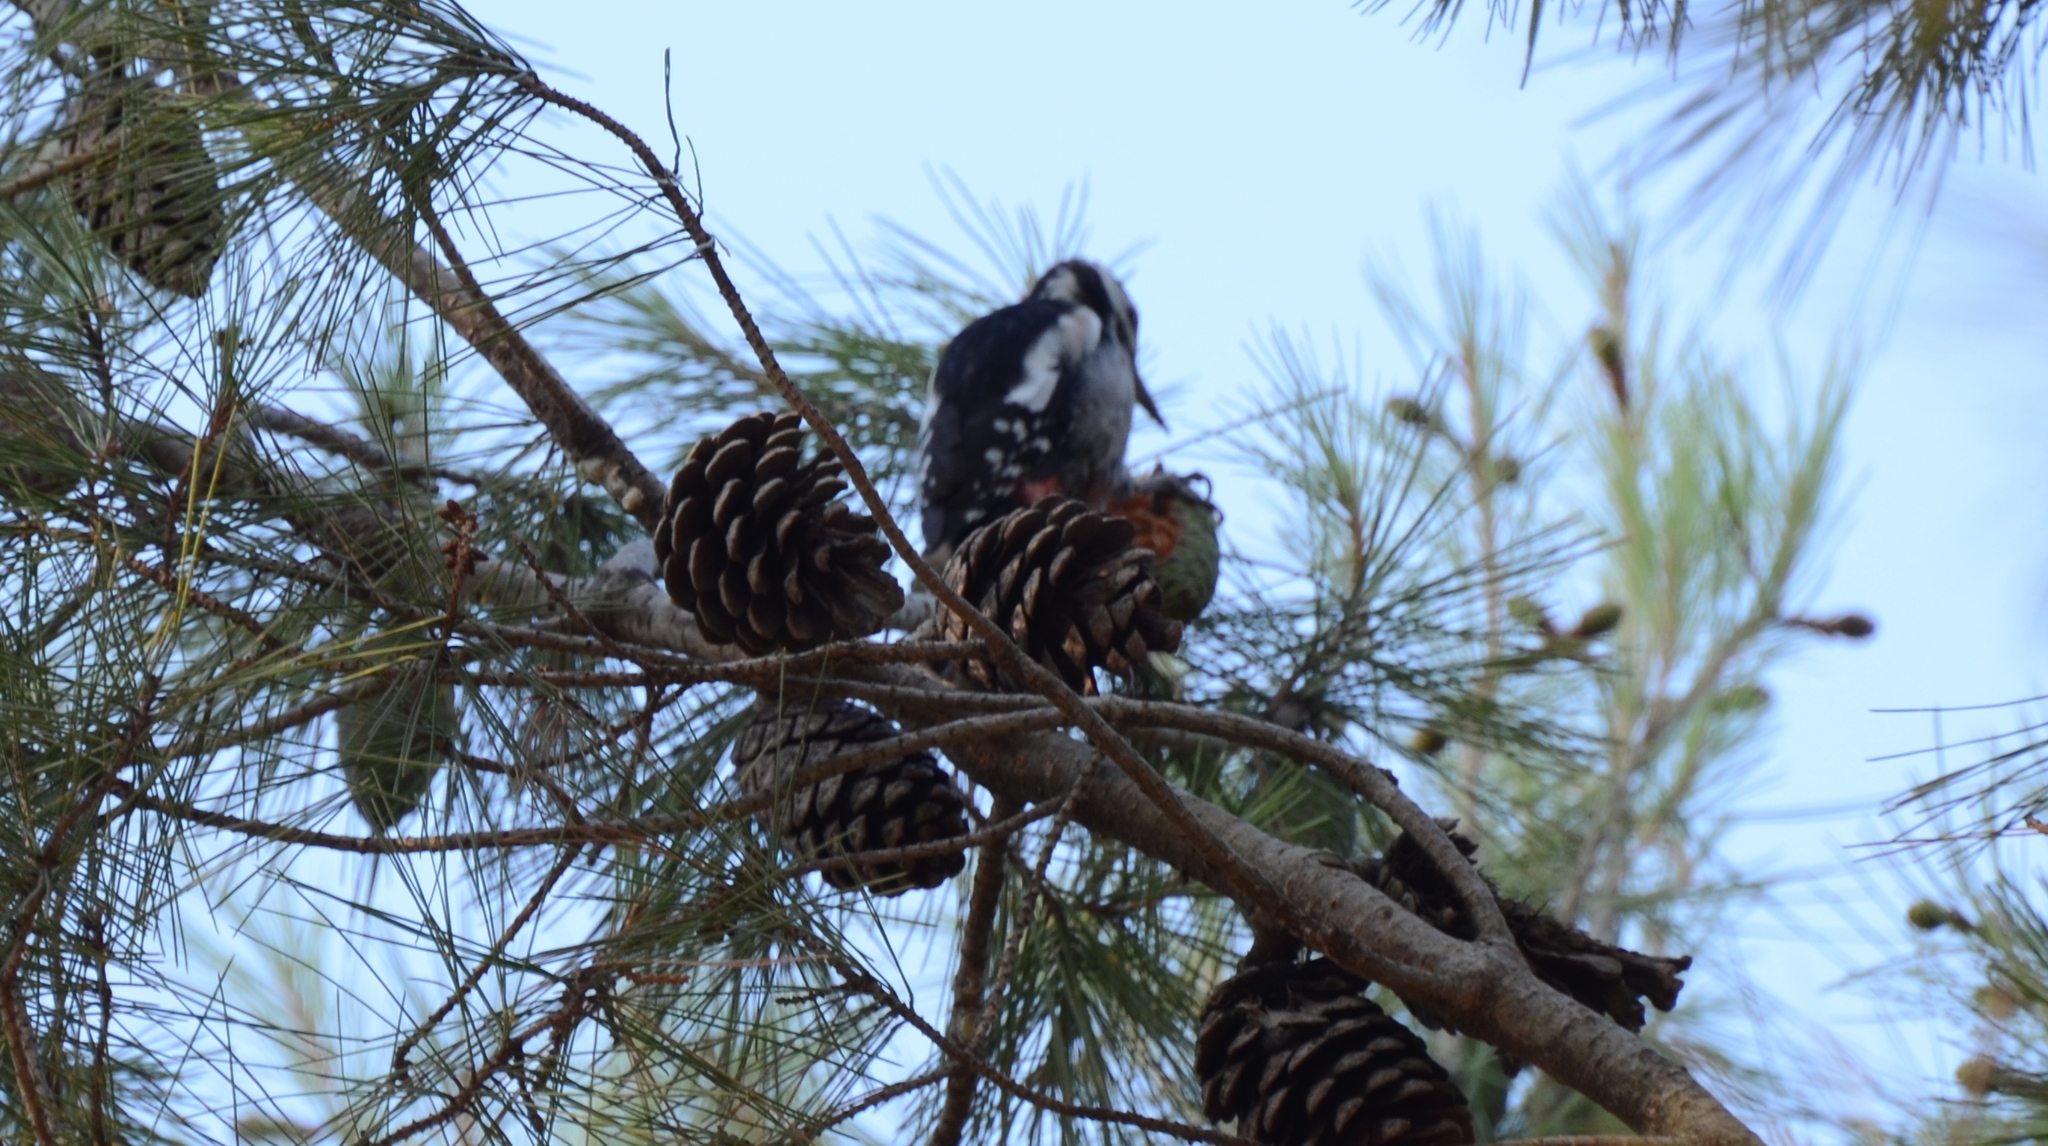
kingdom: Animalia
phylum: Chordata
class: Aves
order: Piciformes
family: Picidae
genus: Dendrocopos
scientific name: Dendrocopos major
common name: Great spotted woodpecker
